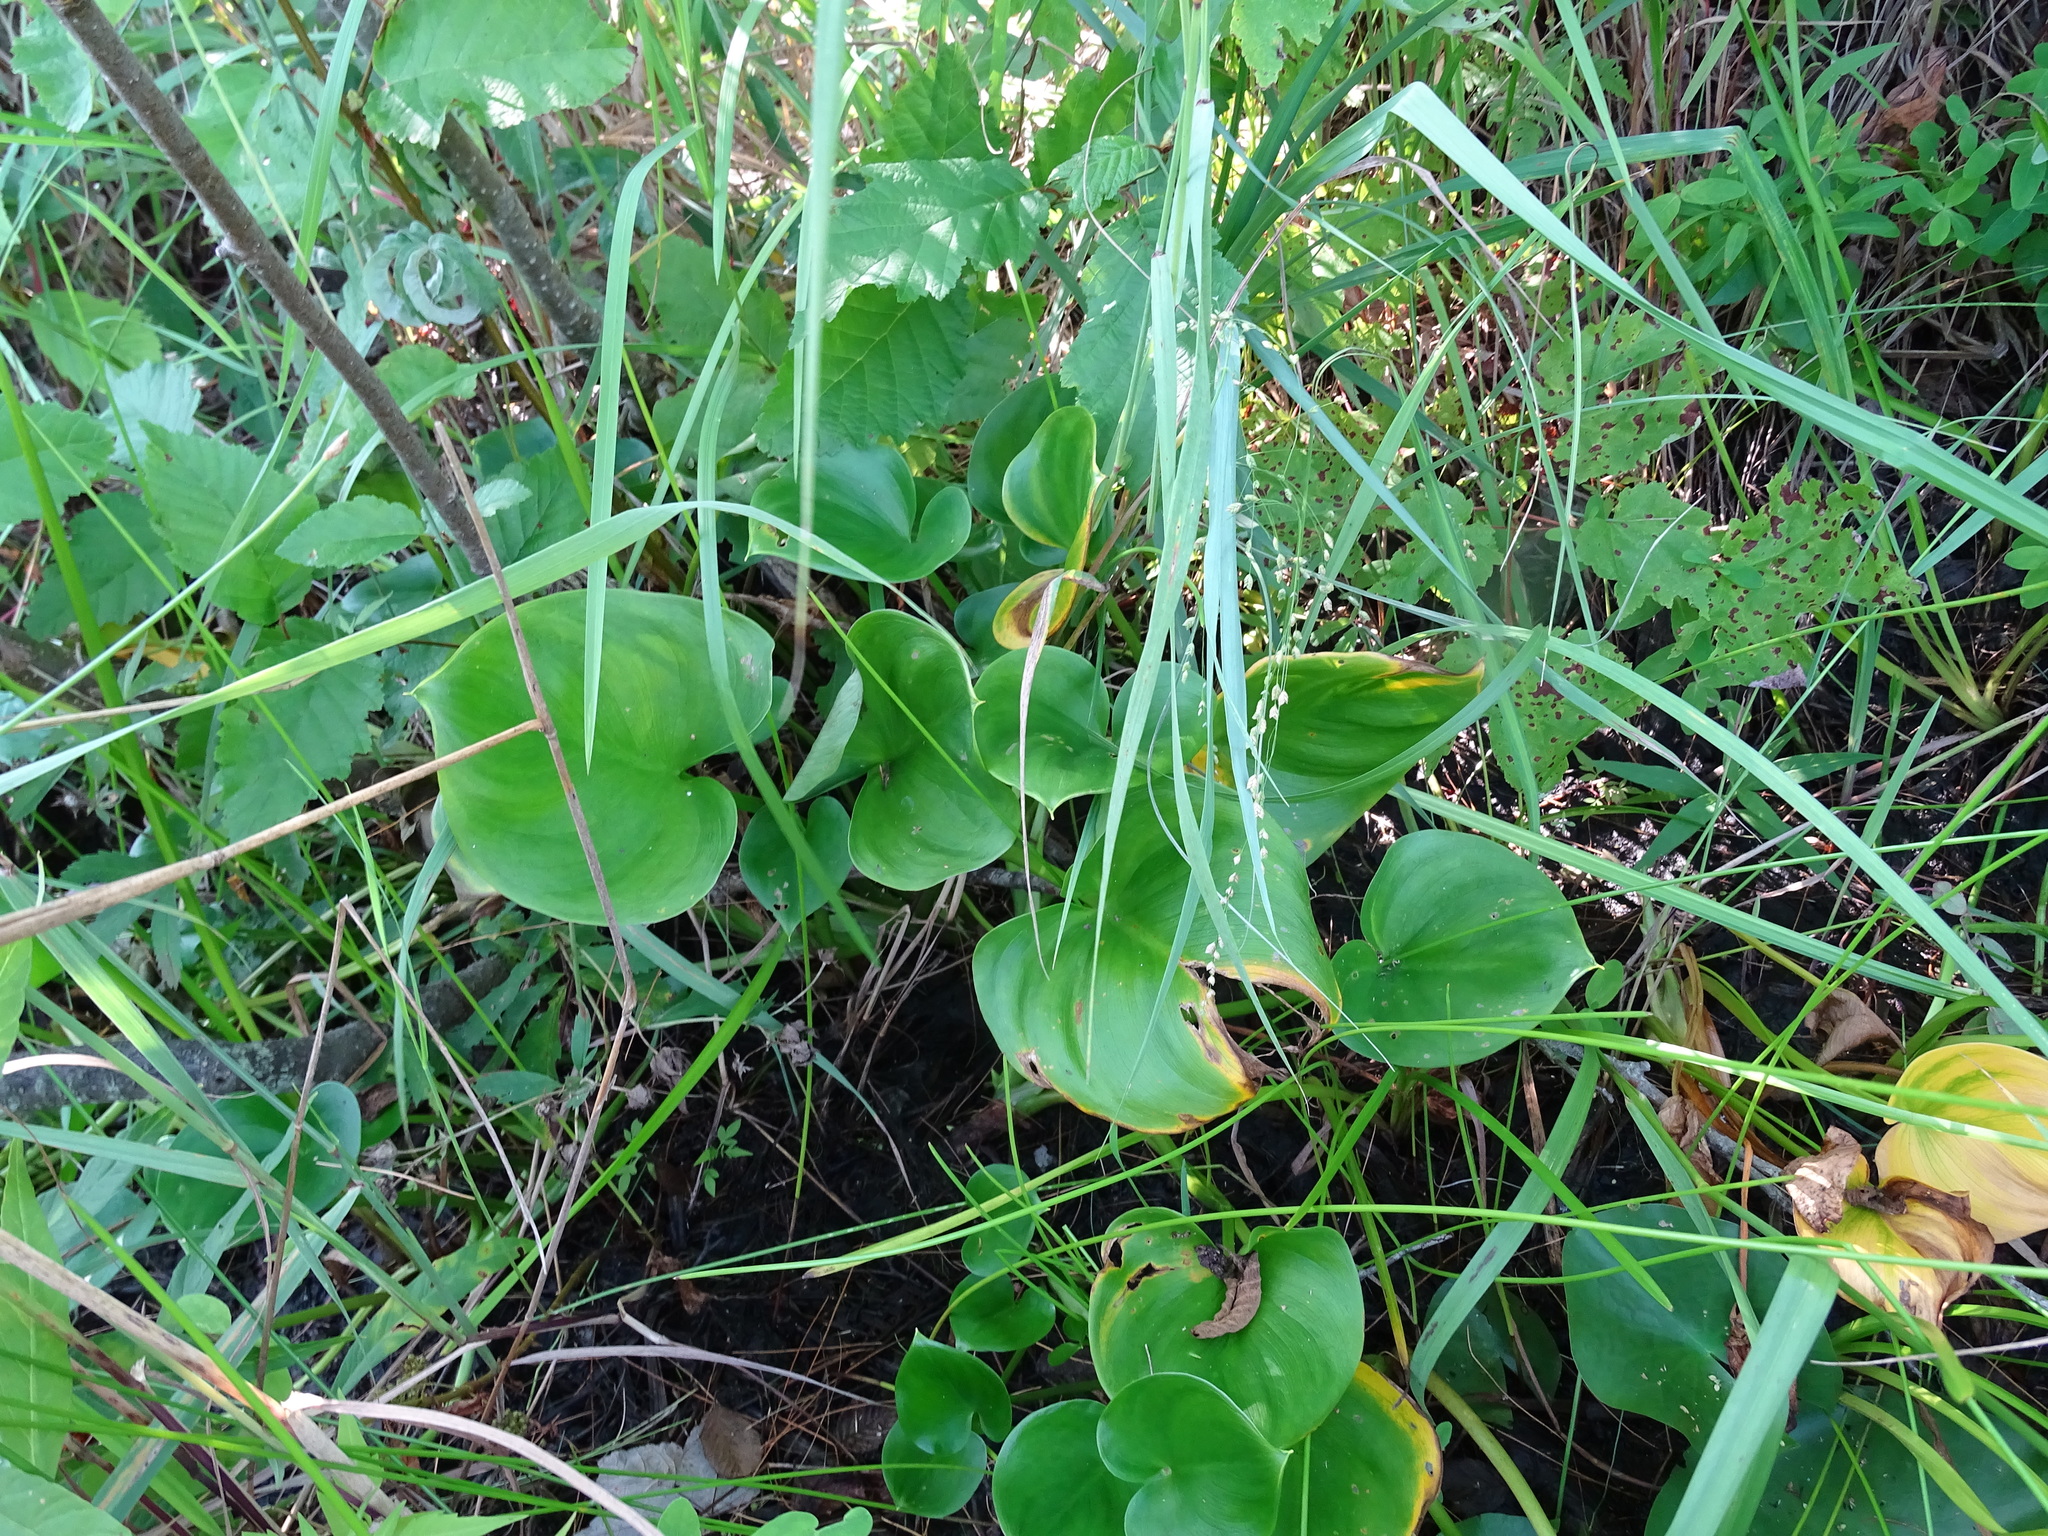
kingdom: Plantae
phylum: Tracheophyta
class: Liliopsida
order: Alismatales
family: Araceae
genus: Calla
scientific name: Calla palustris
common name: Bog arum
